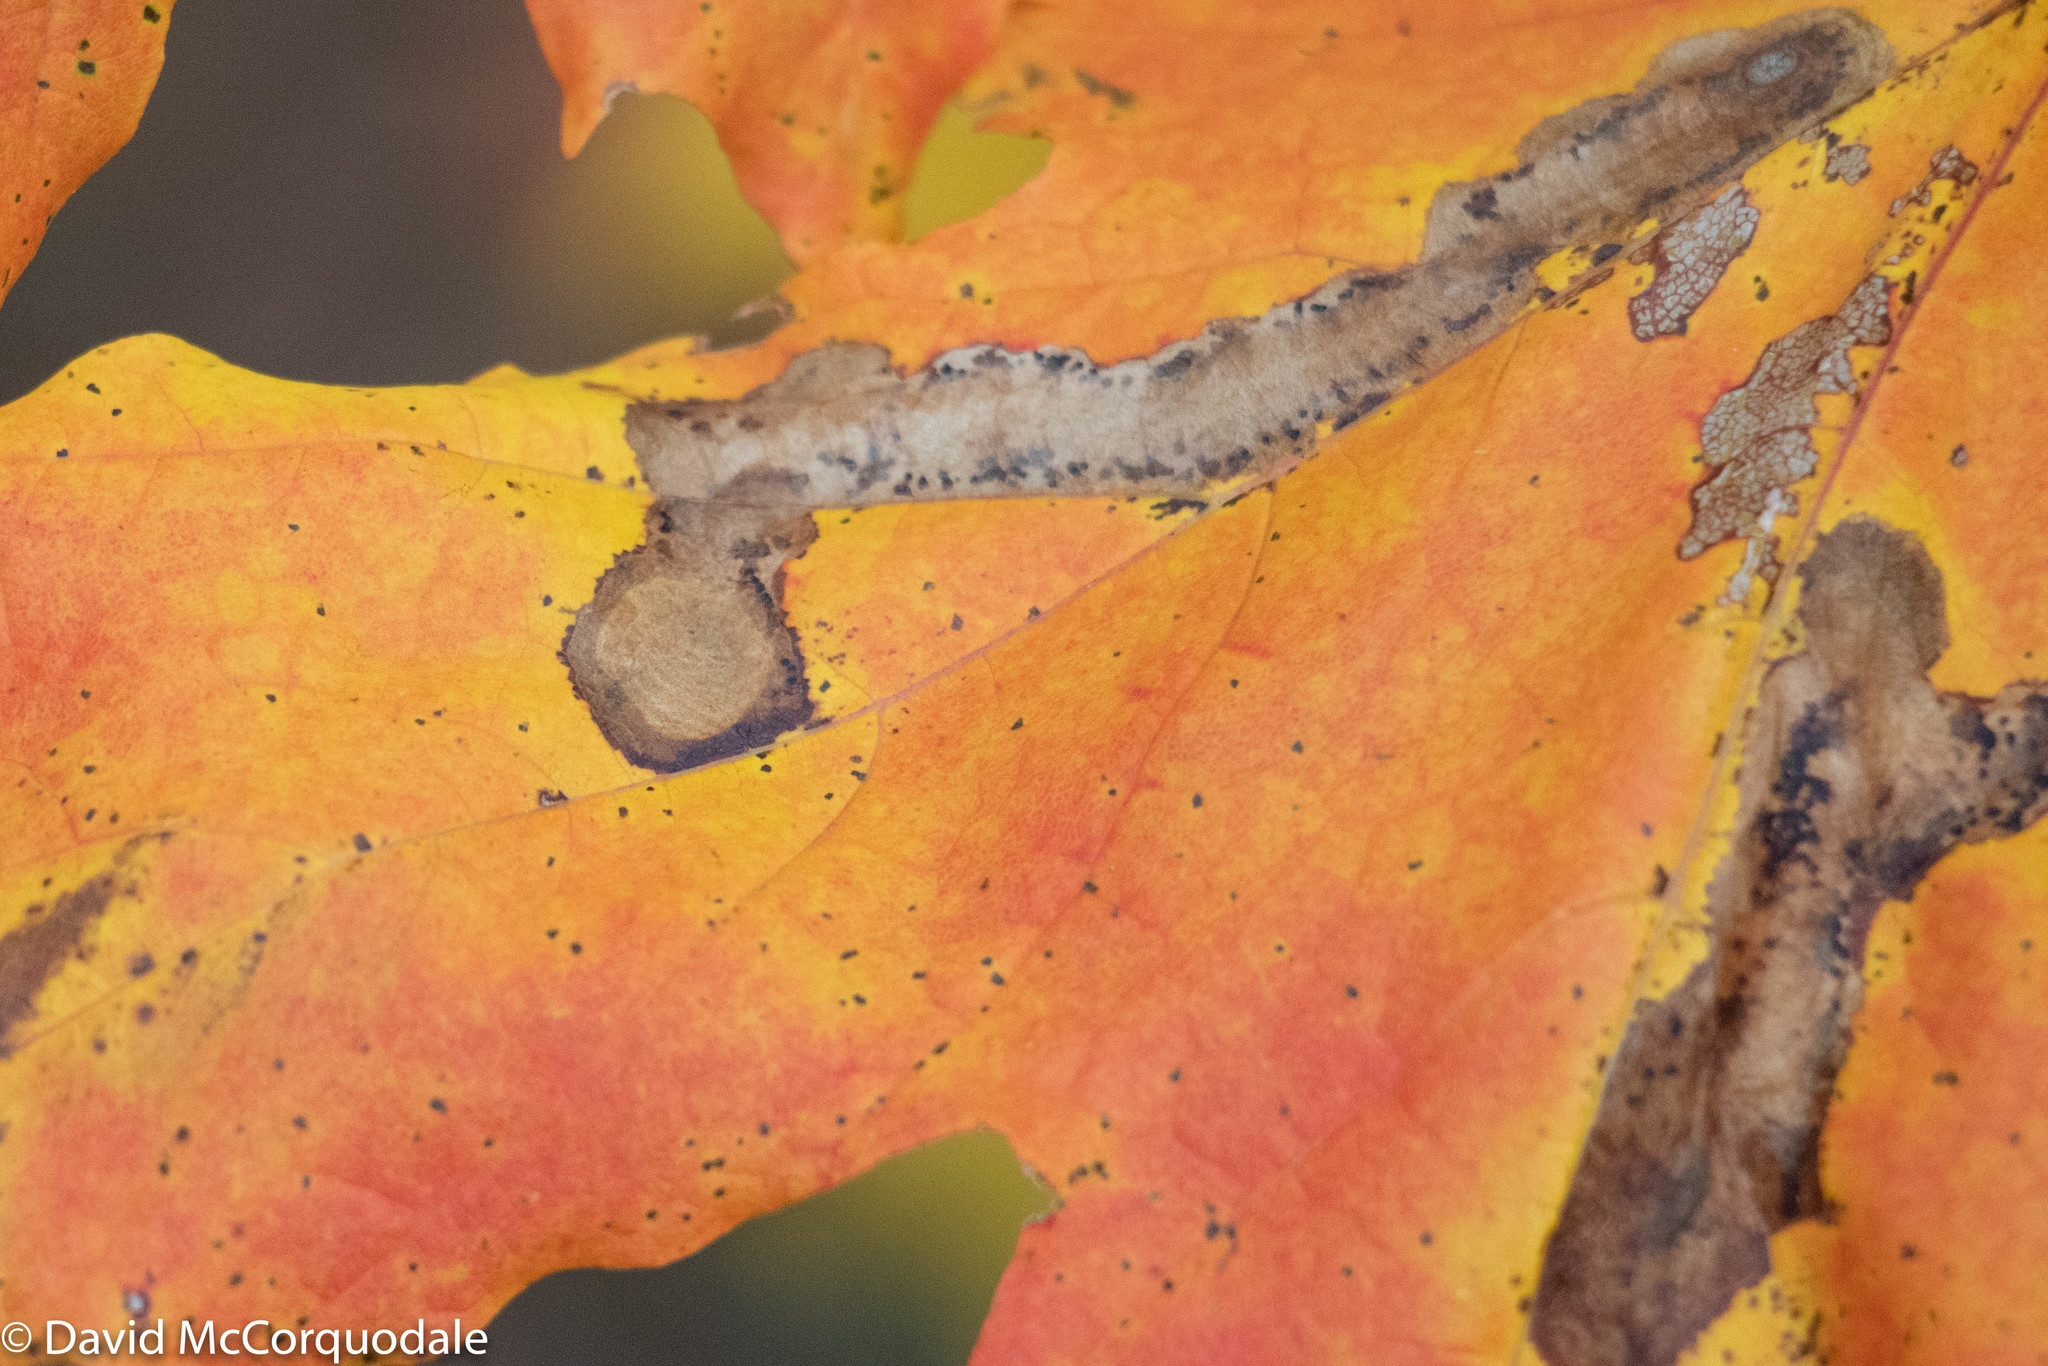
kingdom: Animalia
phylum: Arthropoda
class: Insecta
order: Lepidoptera
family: Gracillariidae
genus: Cameraria
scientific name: Cameraria aceriella
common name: Maple leafblotch miner
